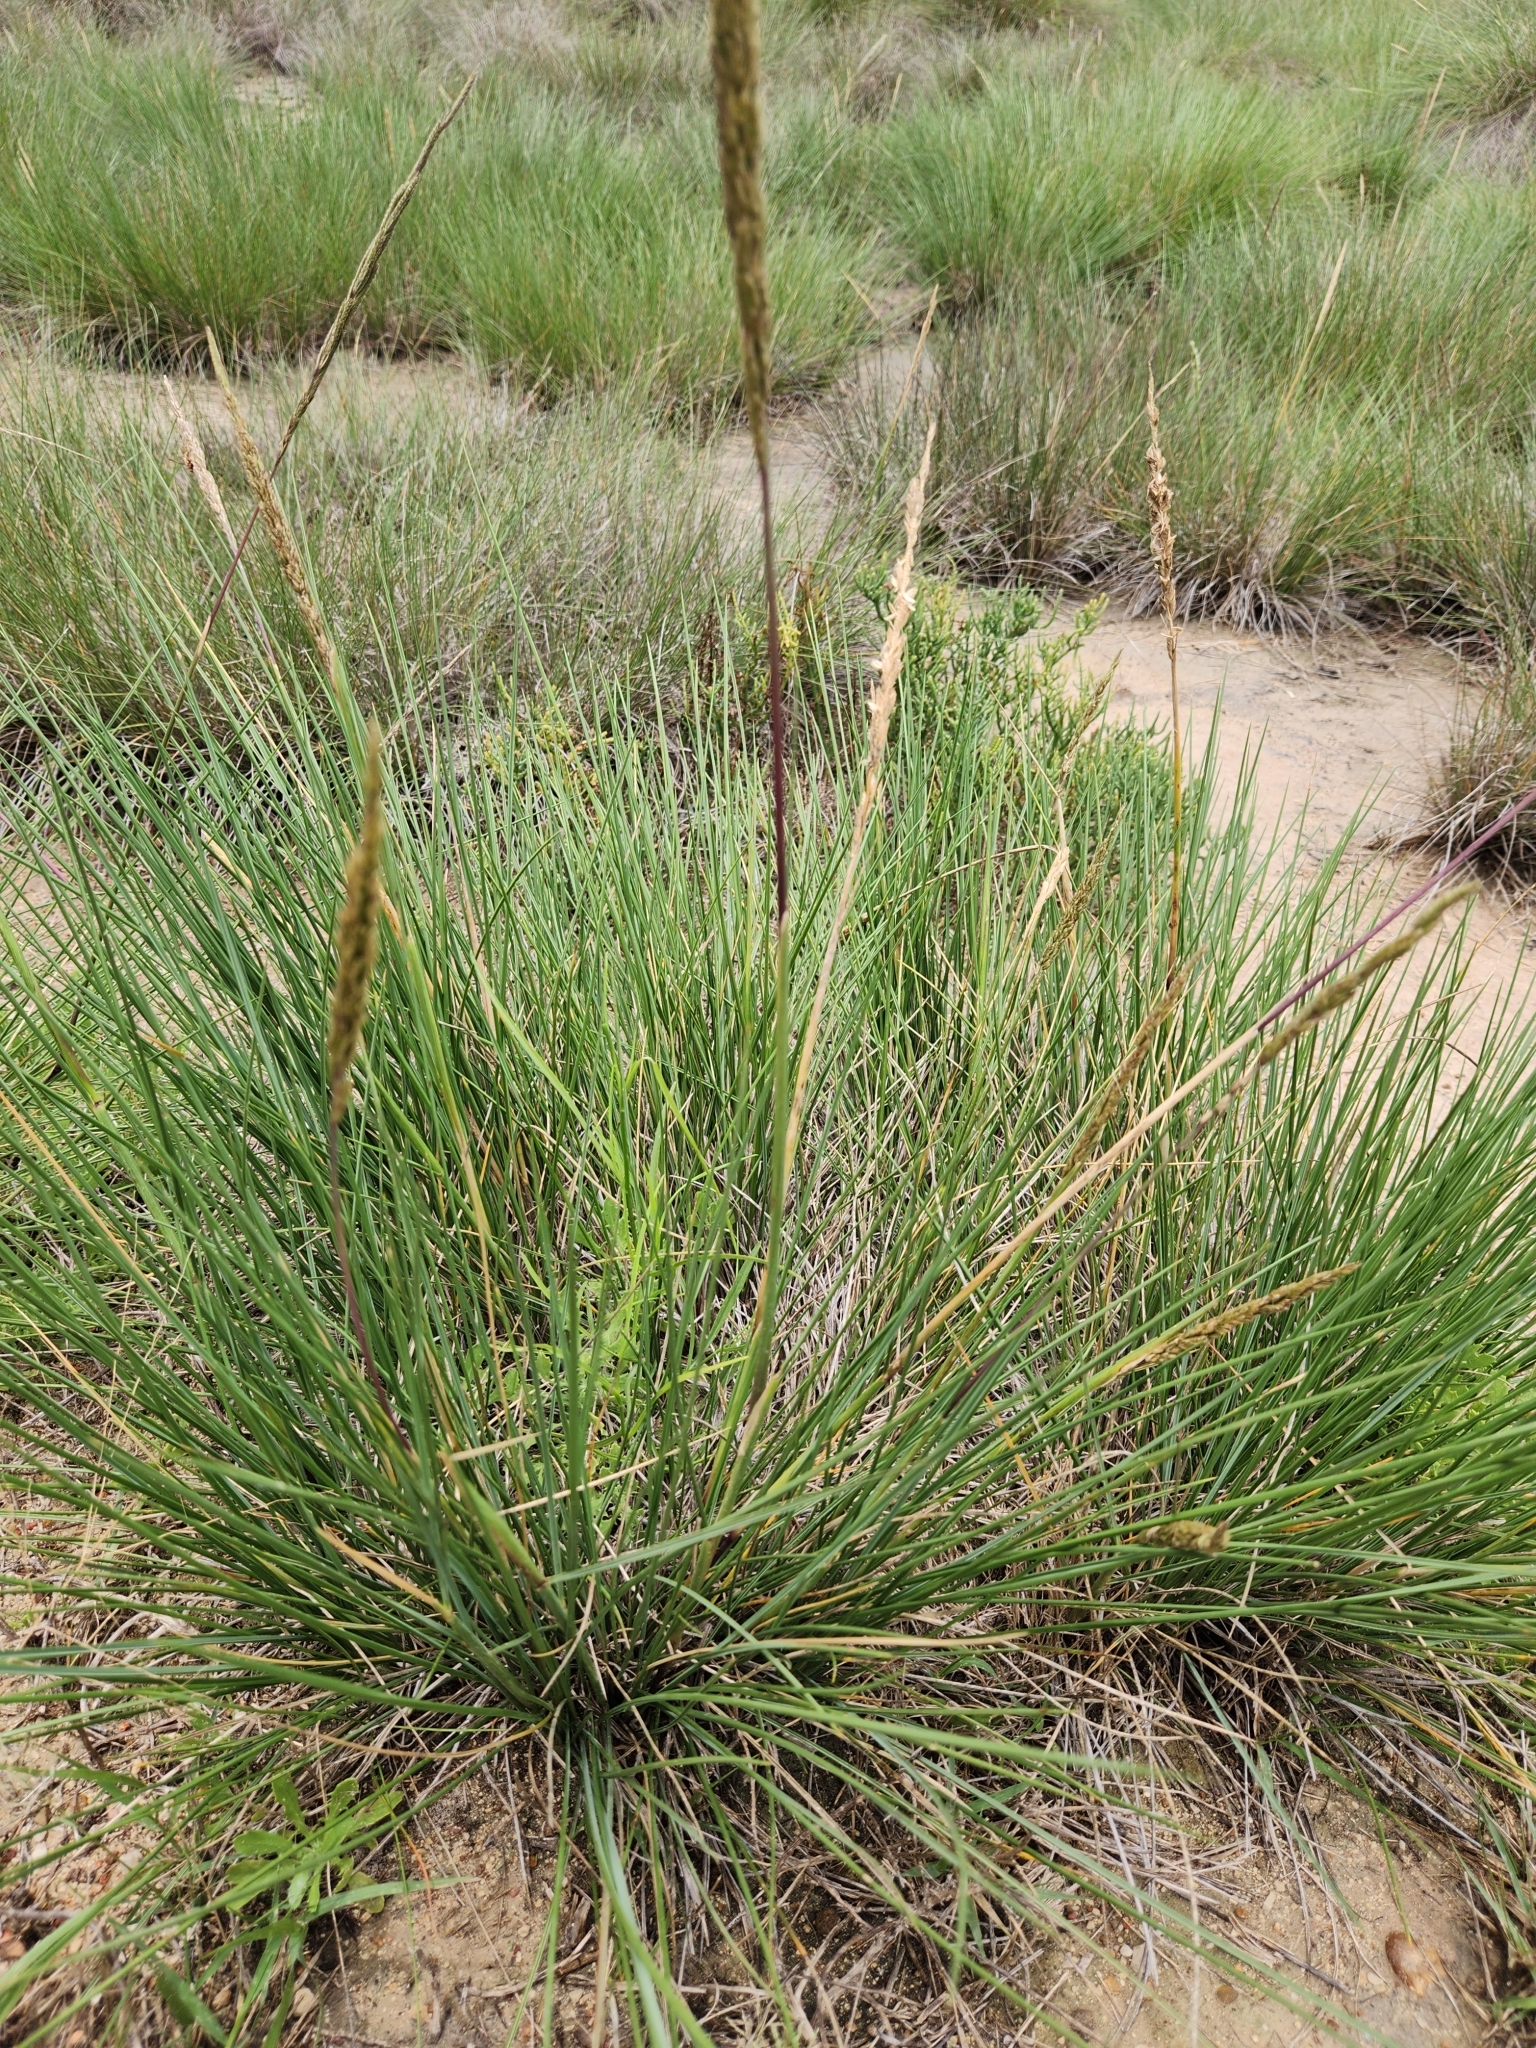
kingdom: Plantae
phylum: Tracheophyta
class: Liliopsida
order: Poales
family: Poaceae
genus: Sporobolus
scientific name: Sporobolus spartinae
